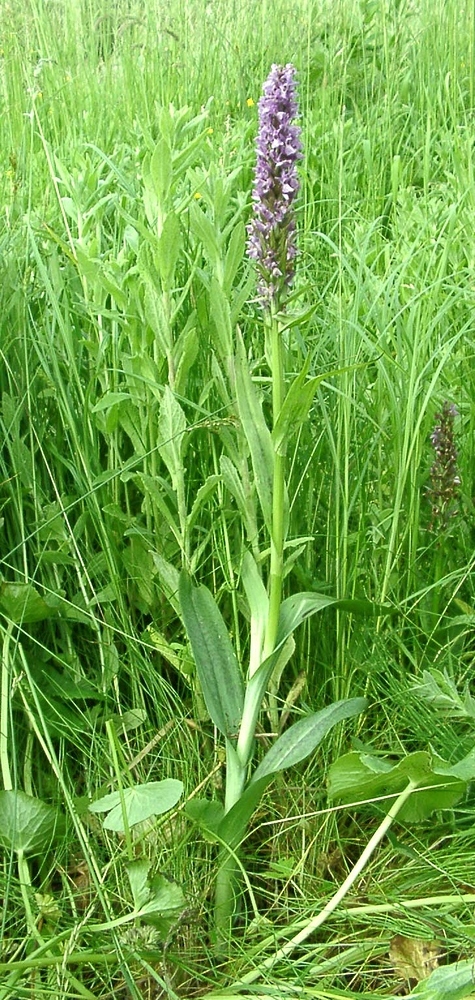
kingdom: Plantae
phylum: Tracheophyta
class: Liliopsida
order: Asparagales
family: Orchidaceae
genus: Dactylorhiza
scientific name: Dactylorhiza grandis
